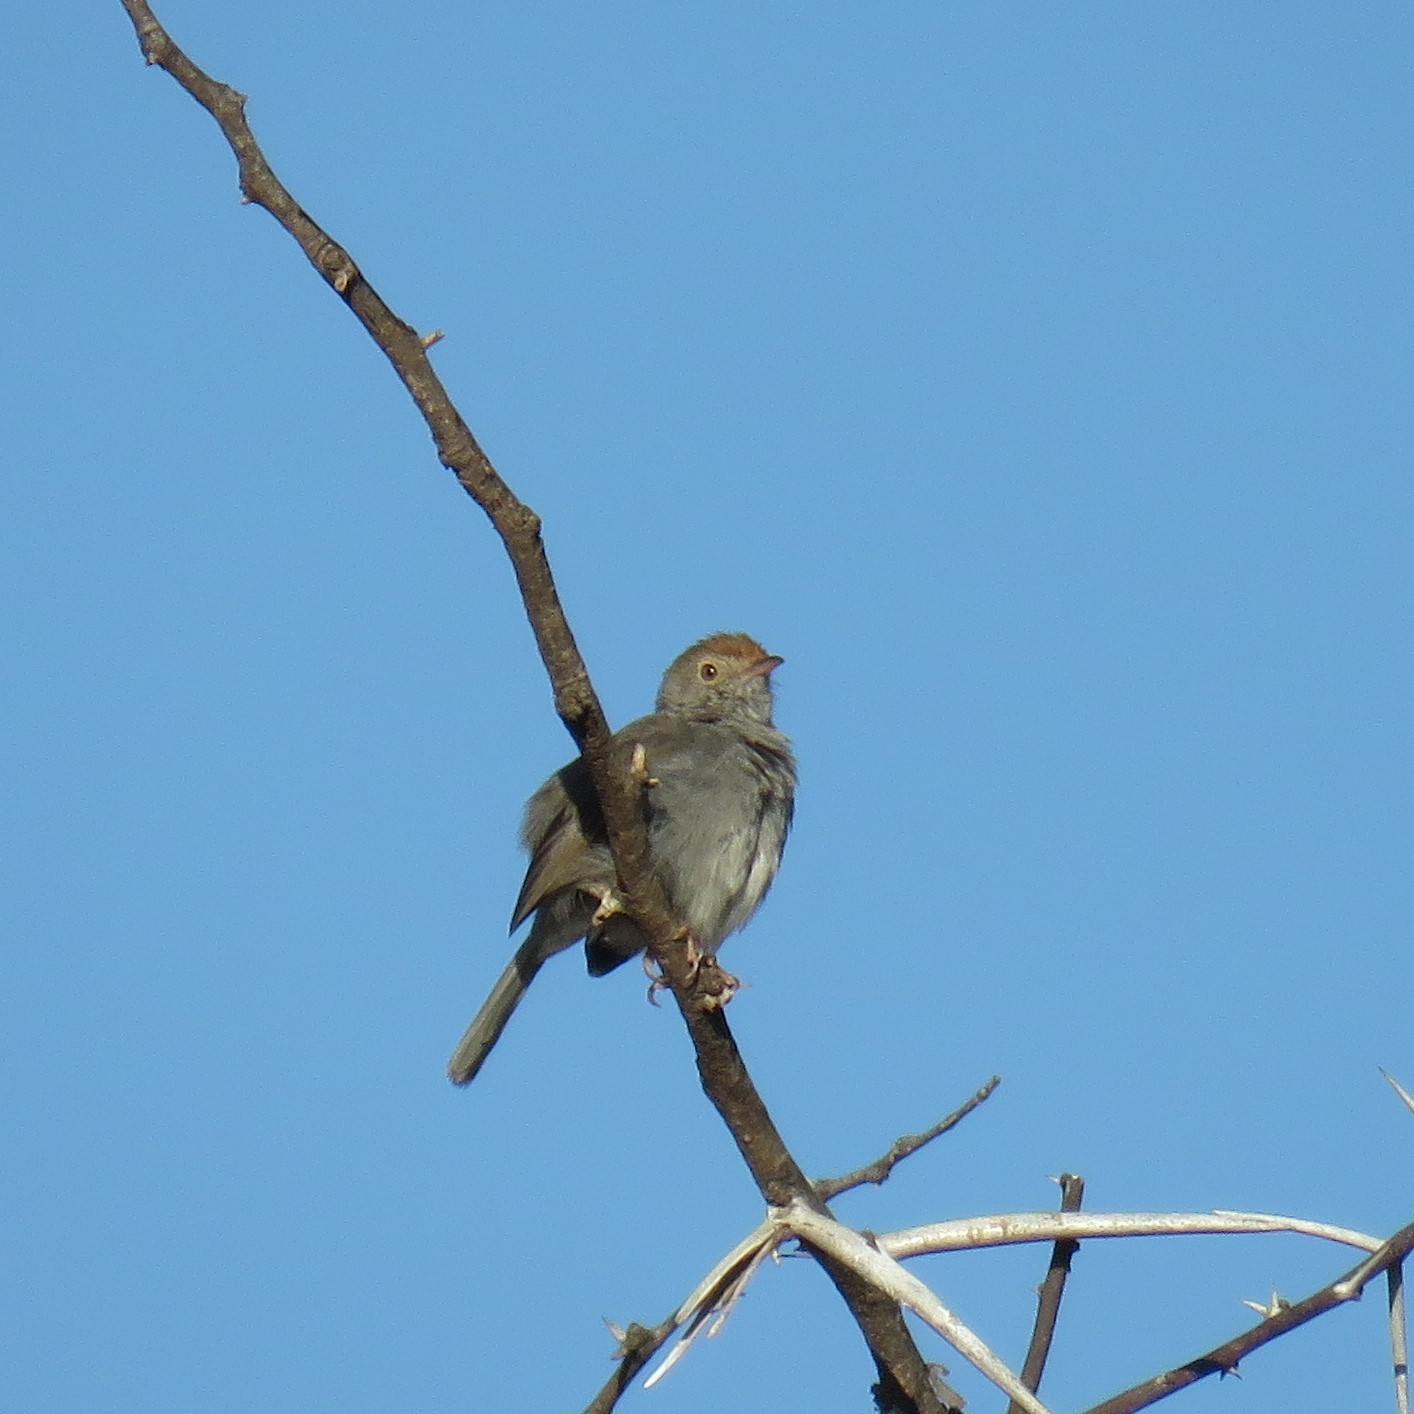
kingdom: Animalia
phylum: Chordata
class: Aves
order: Passeriformes
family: Cisticolidae
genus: Cisticola
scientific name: Cisticola fulvicapilla
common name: Neddicky
